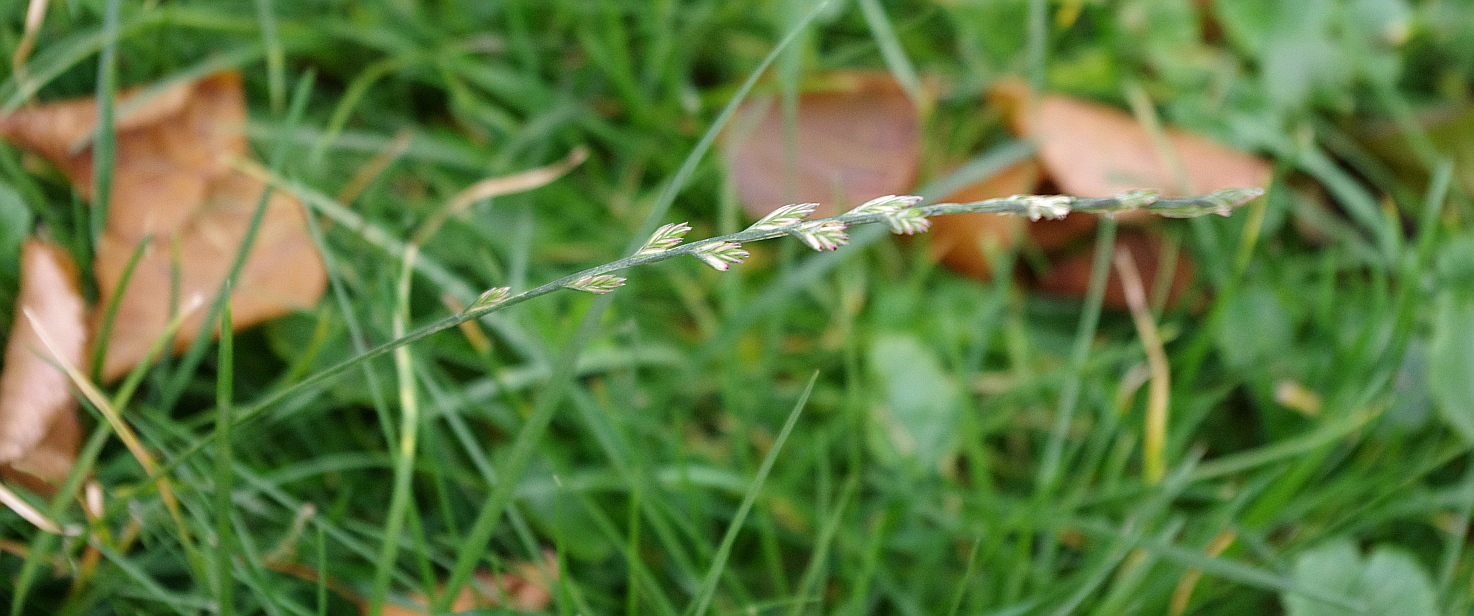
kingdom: Plantae
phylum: Tracheophyta
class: Liliopsida
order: Poales
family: Poaceae
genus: Lolium
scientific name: Lolium perenne
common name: Perennial ryegrass
